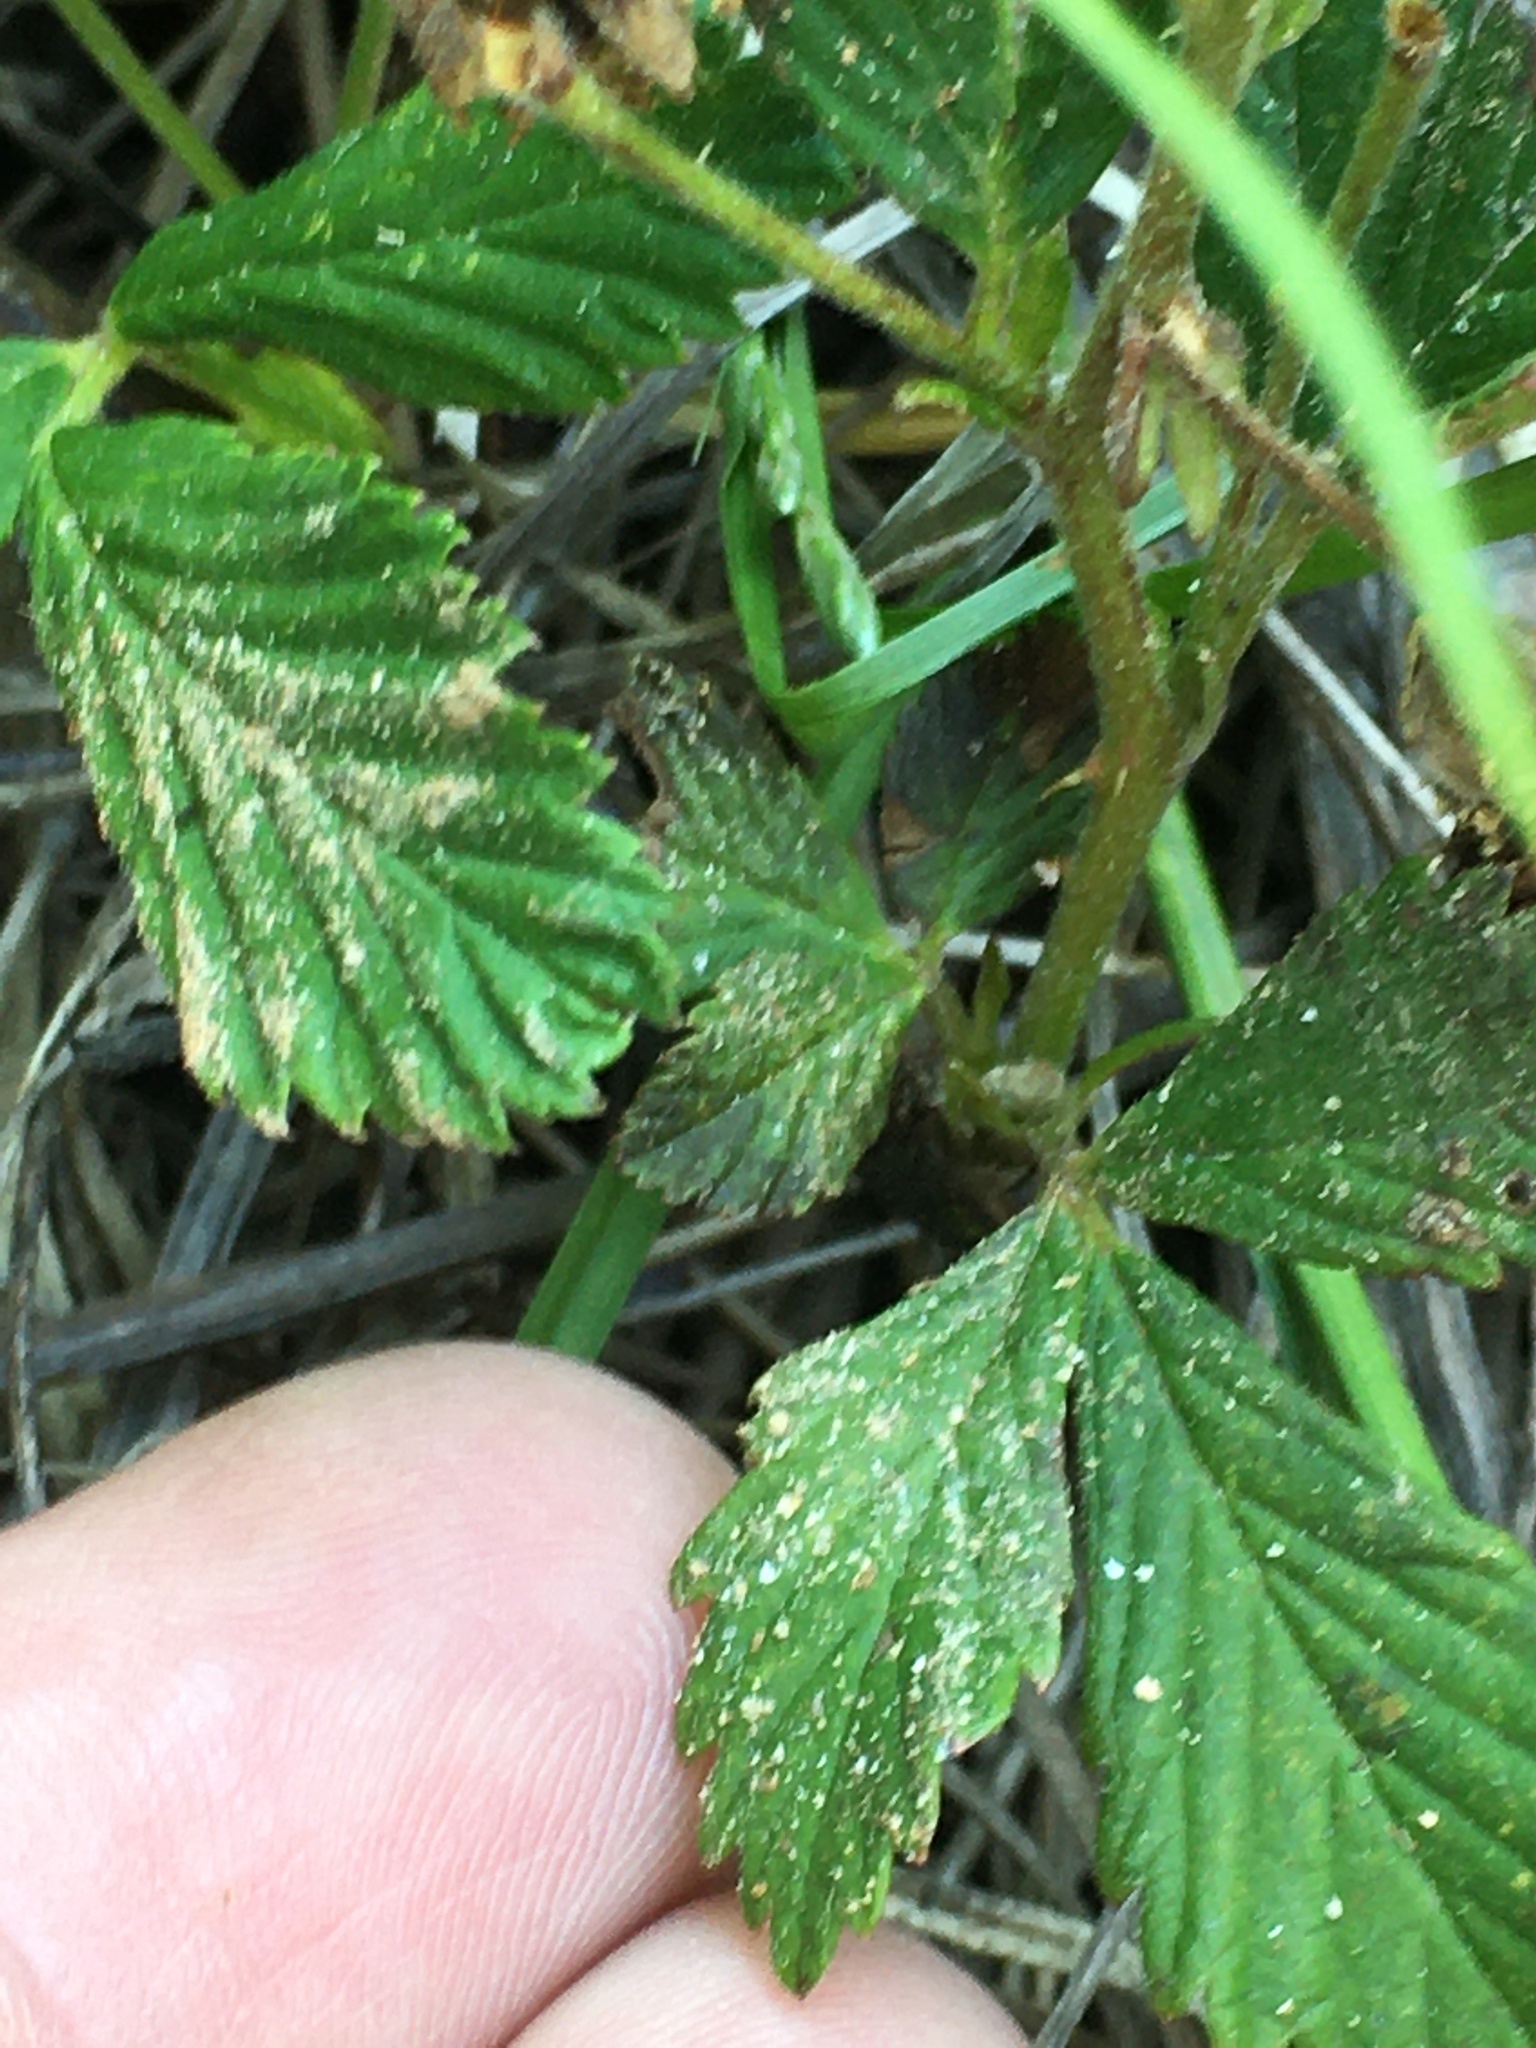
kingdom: Plantae
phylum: Tracheophyta
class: Magnoliopsida
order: Rosales
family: Rosaceae
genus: Rubus
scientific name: Rubus flagellaris
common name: American dewberry
